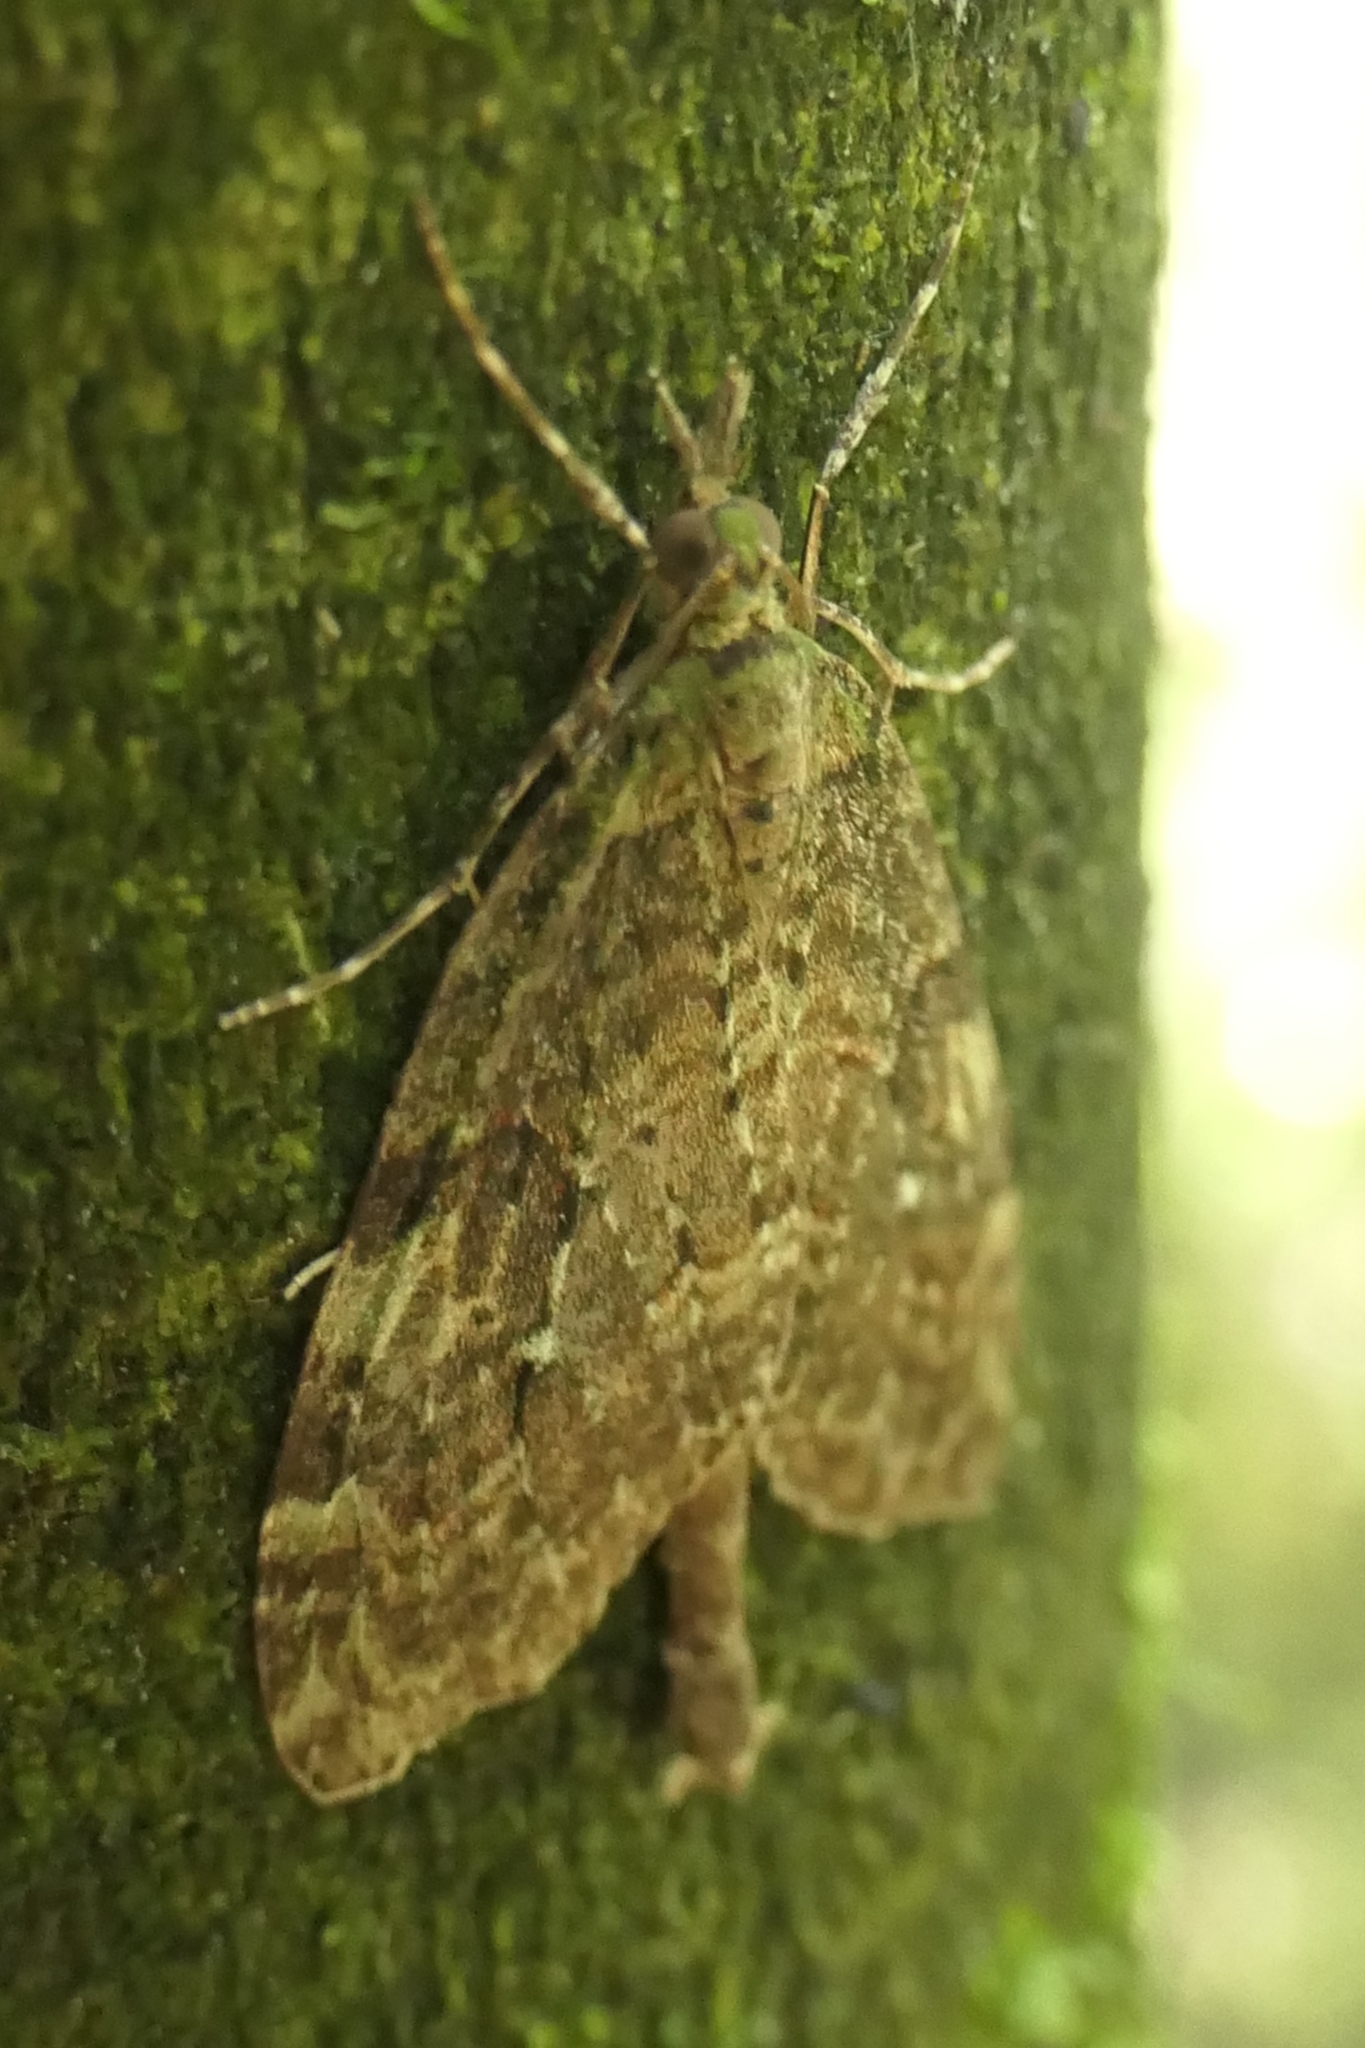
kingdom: Animalia
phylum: Arthropoda
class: Insecta
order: Lepidoptera
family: Geometridae
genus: Tatosoma
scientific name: Tatosoma transitaria
